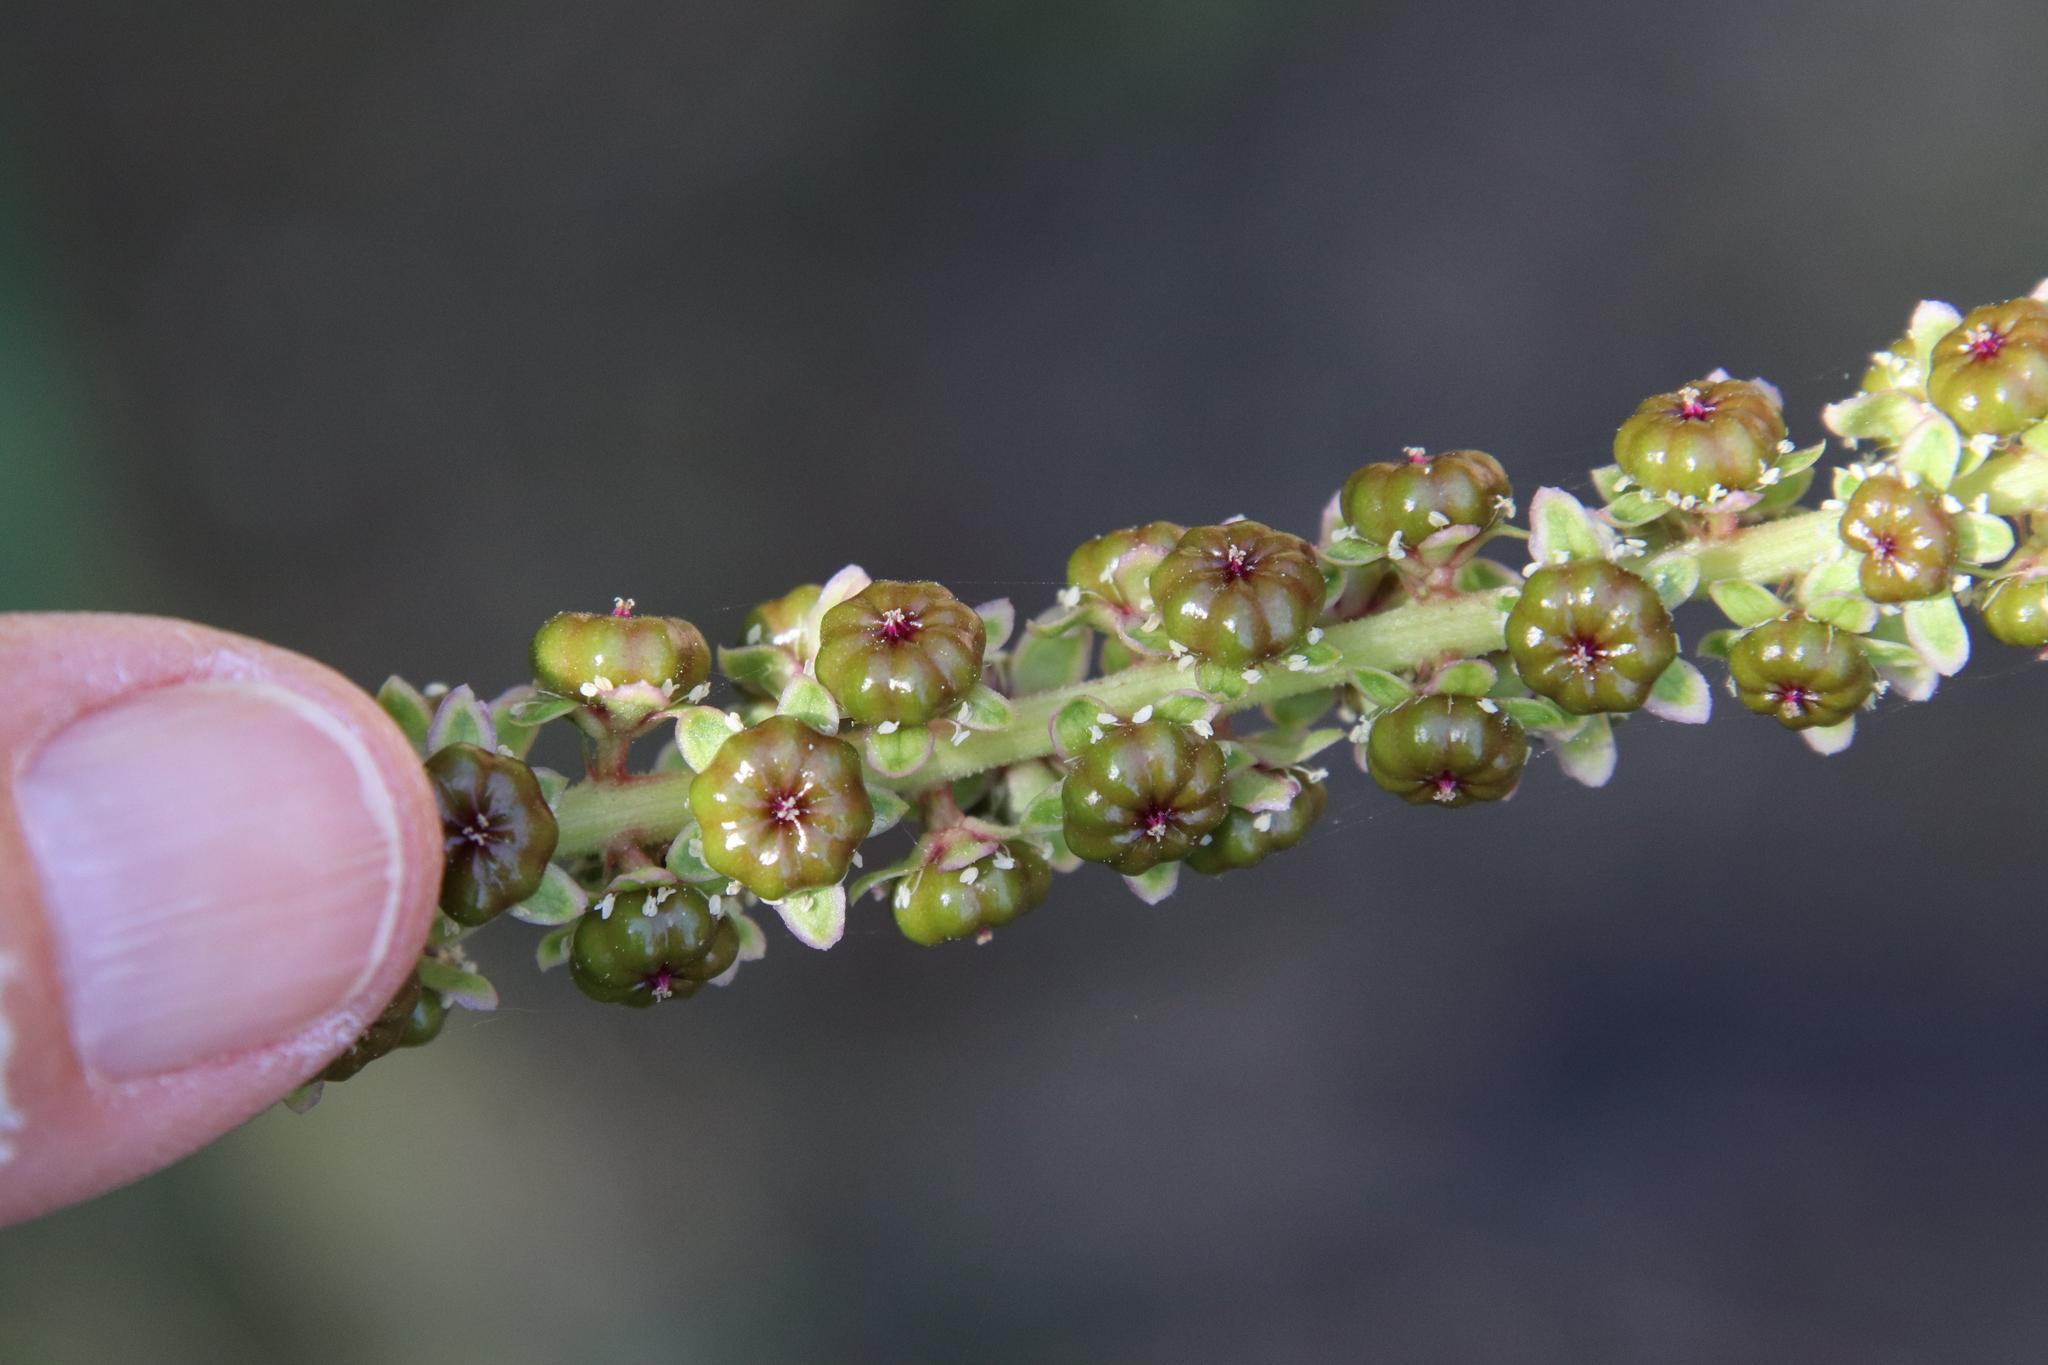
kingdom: Plantae
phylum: Tracheophyta
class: Magnoliopsida
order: Caryophyllales
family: Phytolaccaceae
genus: Phytolacca
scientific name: Phytolacca icosandra
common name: Button pokeweed
